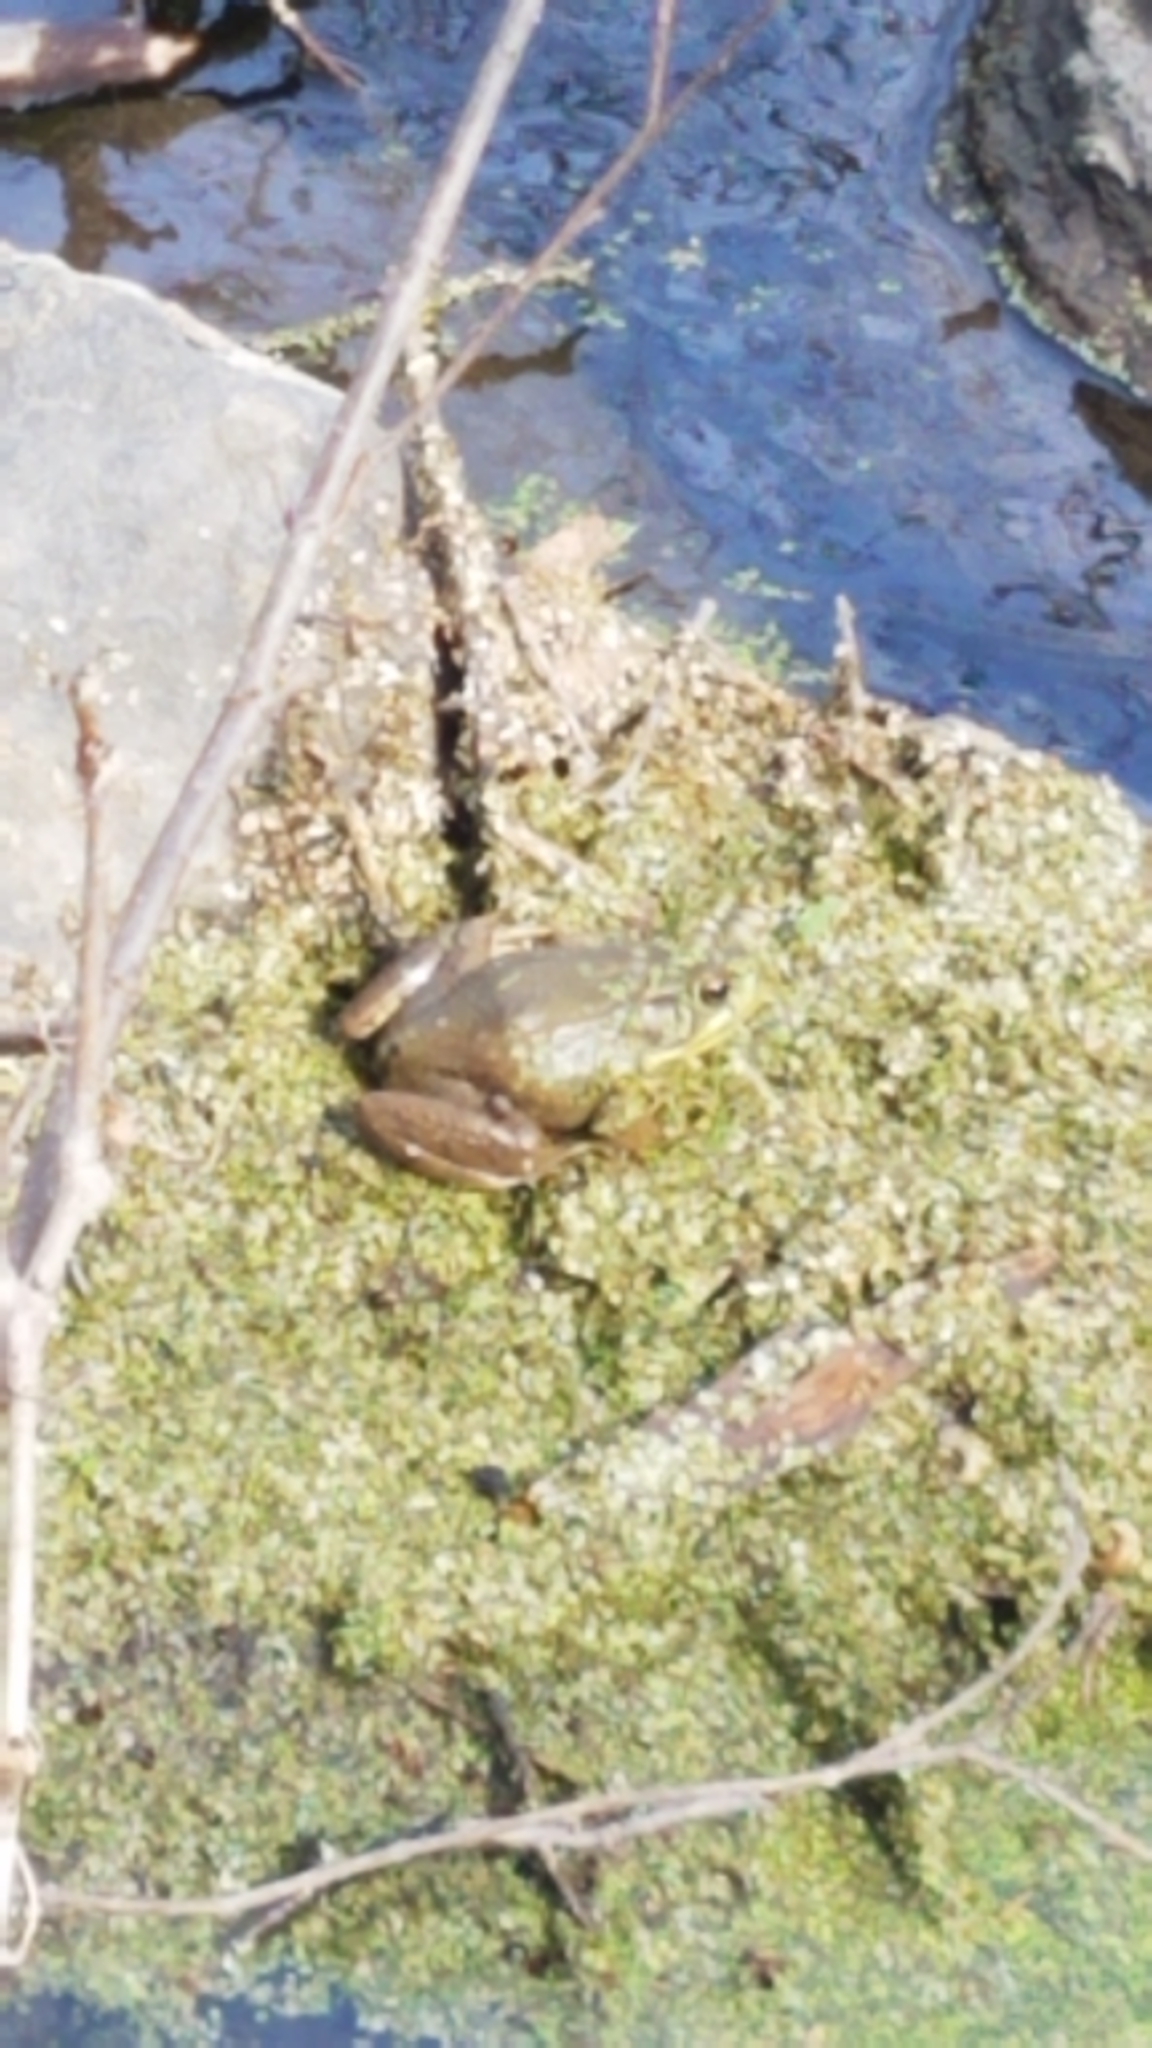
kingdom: Animalia
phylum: Chordata
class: Amphibia
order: Anura
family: Ranidae
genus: Lithobates
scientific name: Lithobates clamitans
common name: Green frog
